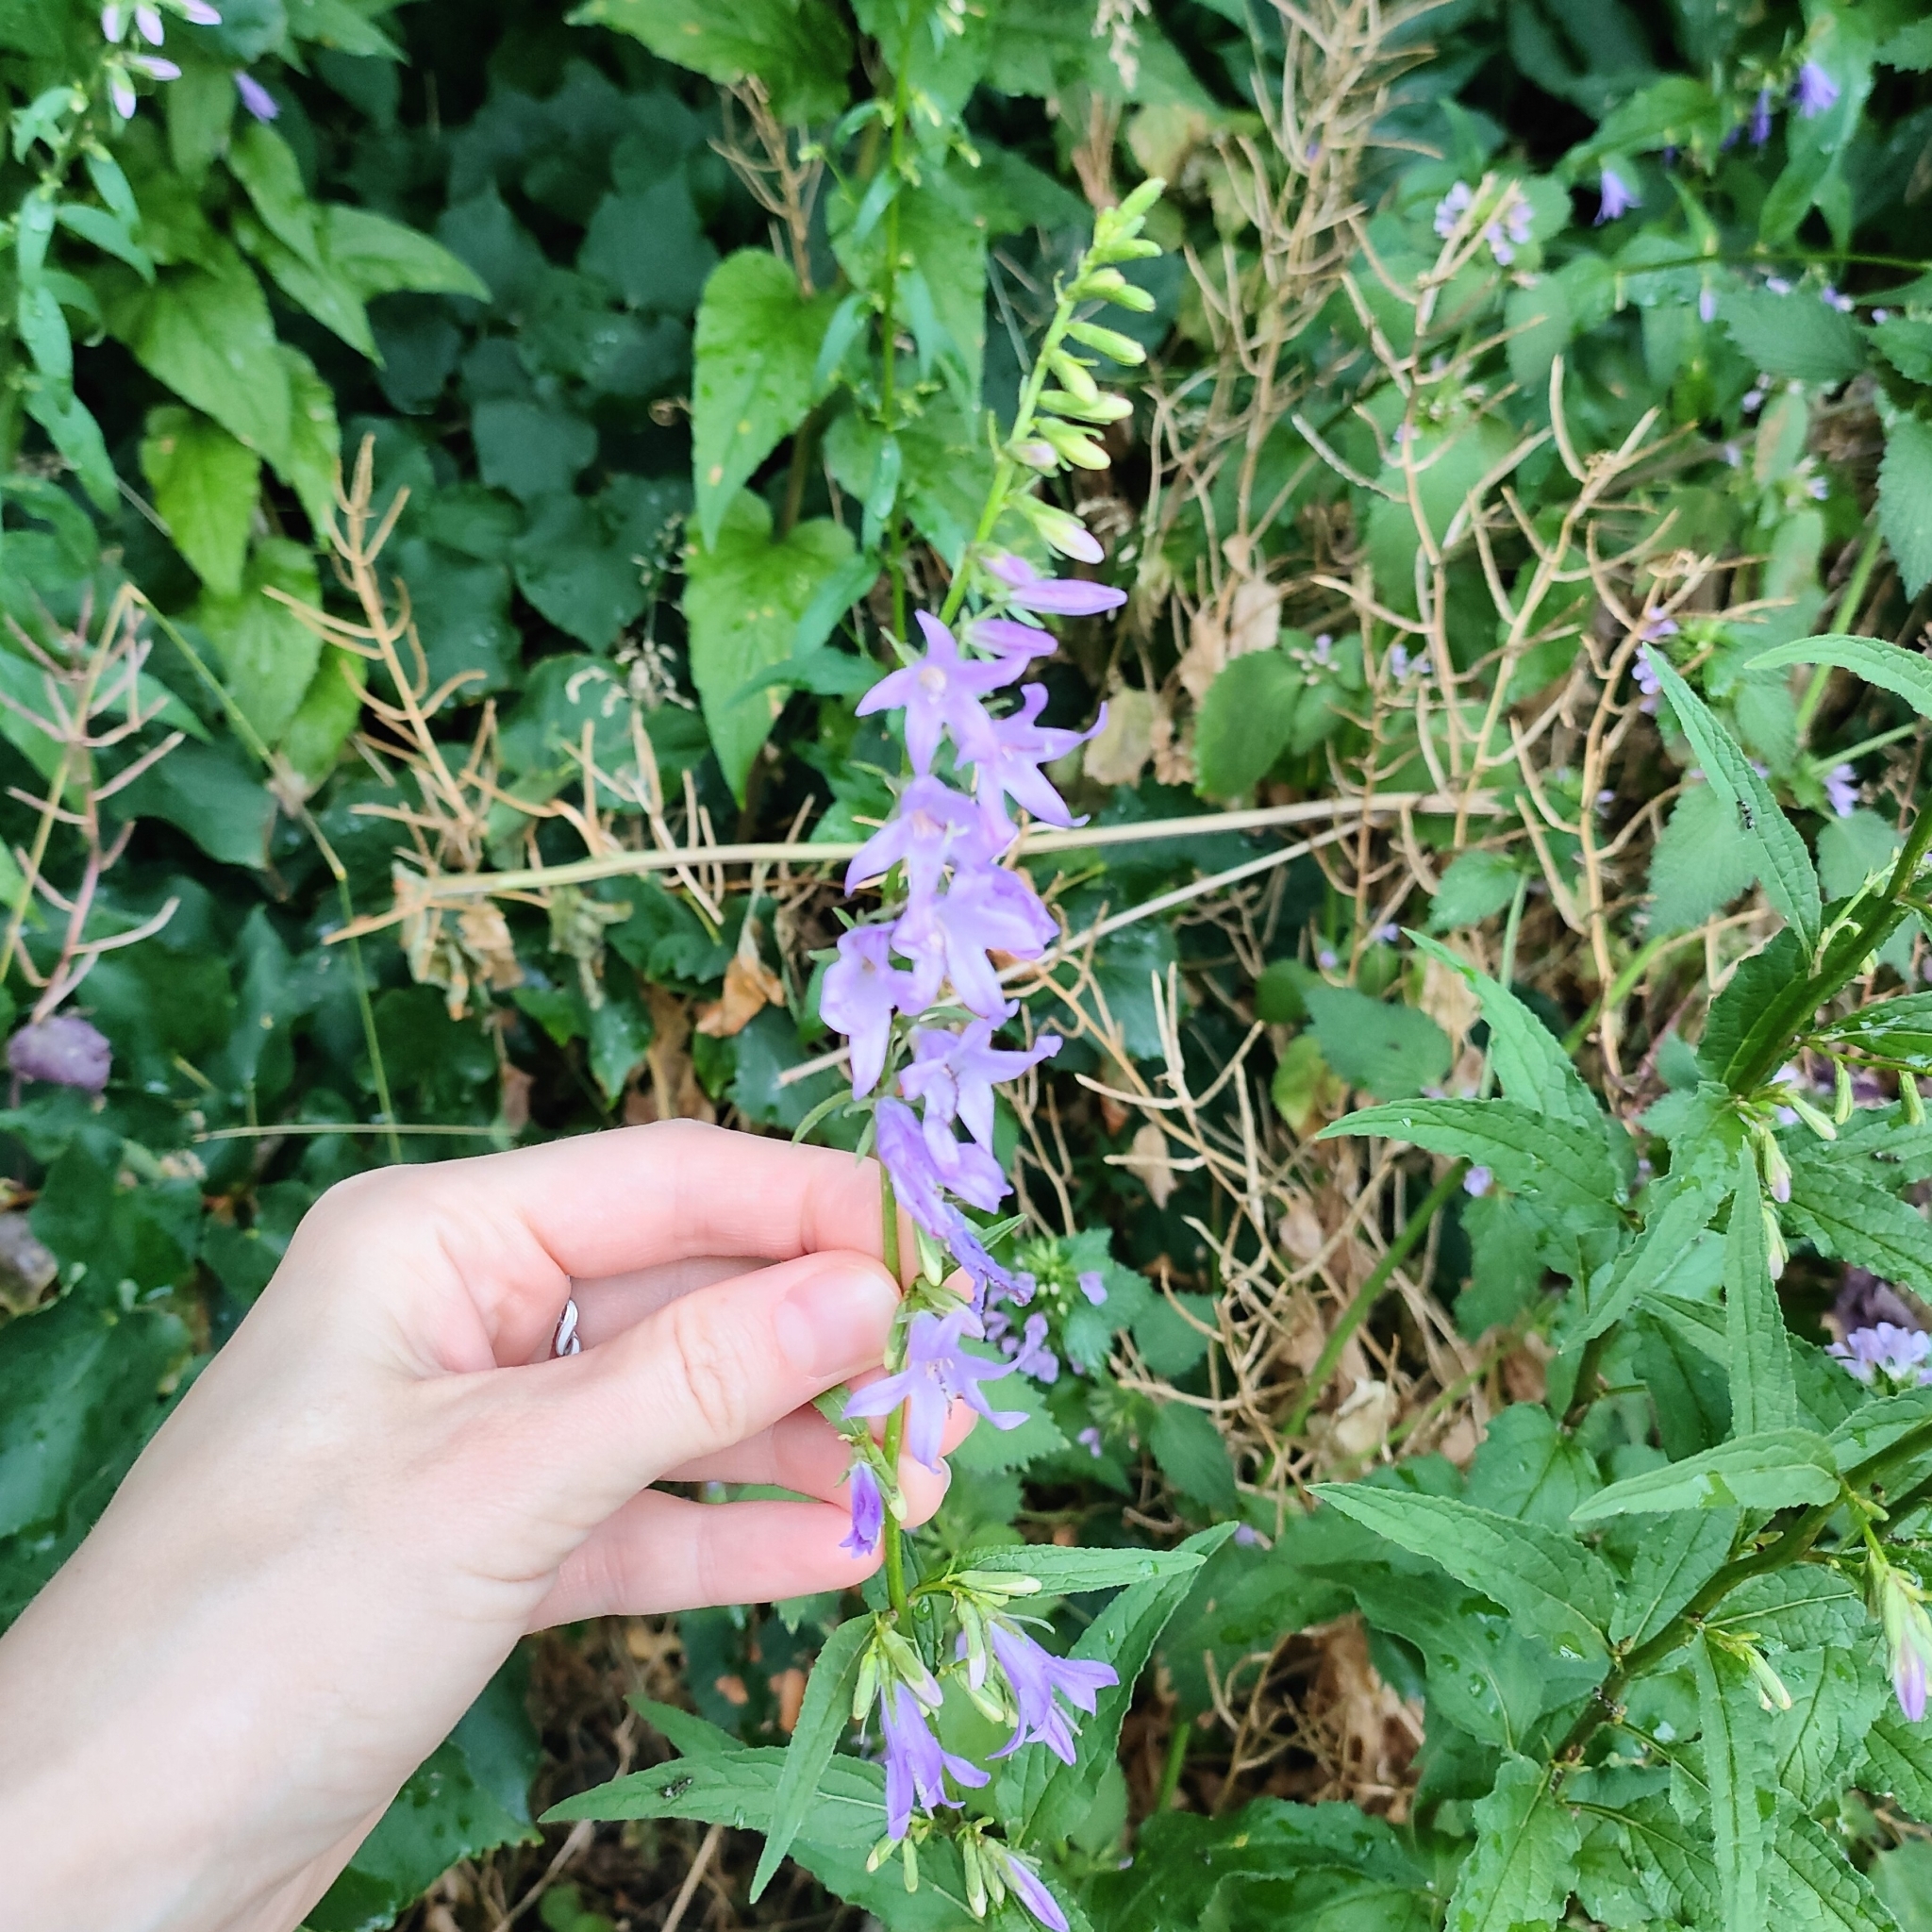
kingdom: Plantae
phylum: Tracheophyta
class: Magnoliopsida
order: Asterales
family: Campanulaceae
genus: Campanula
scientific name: Campanula rapunculoides
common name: Creeping bellflower
